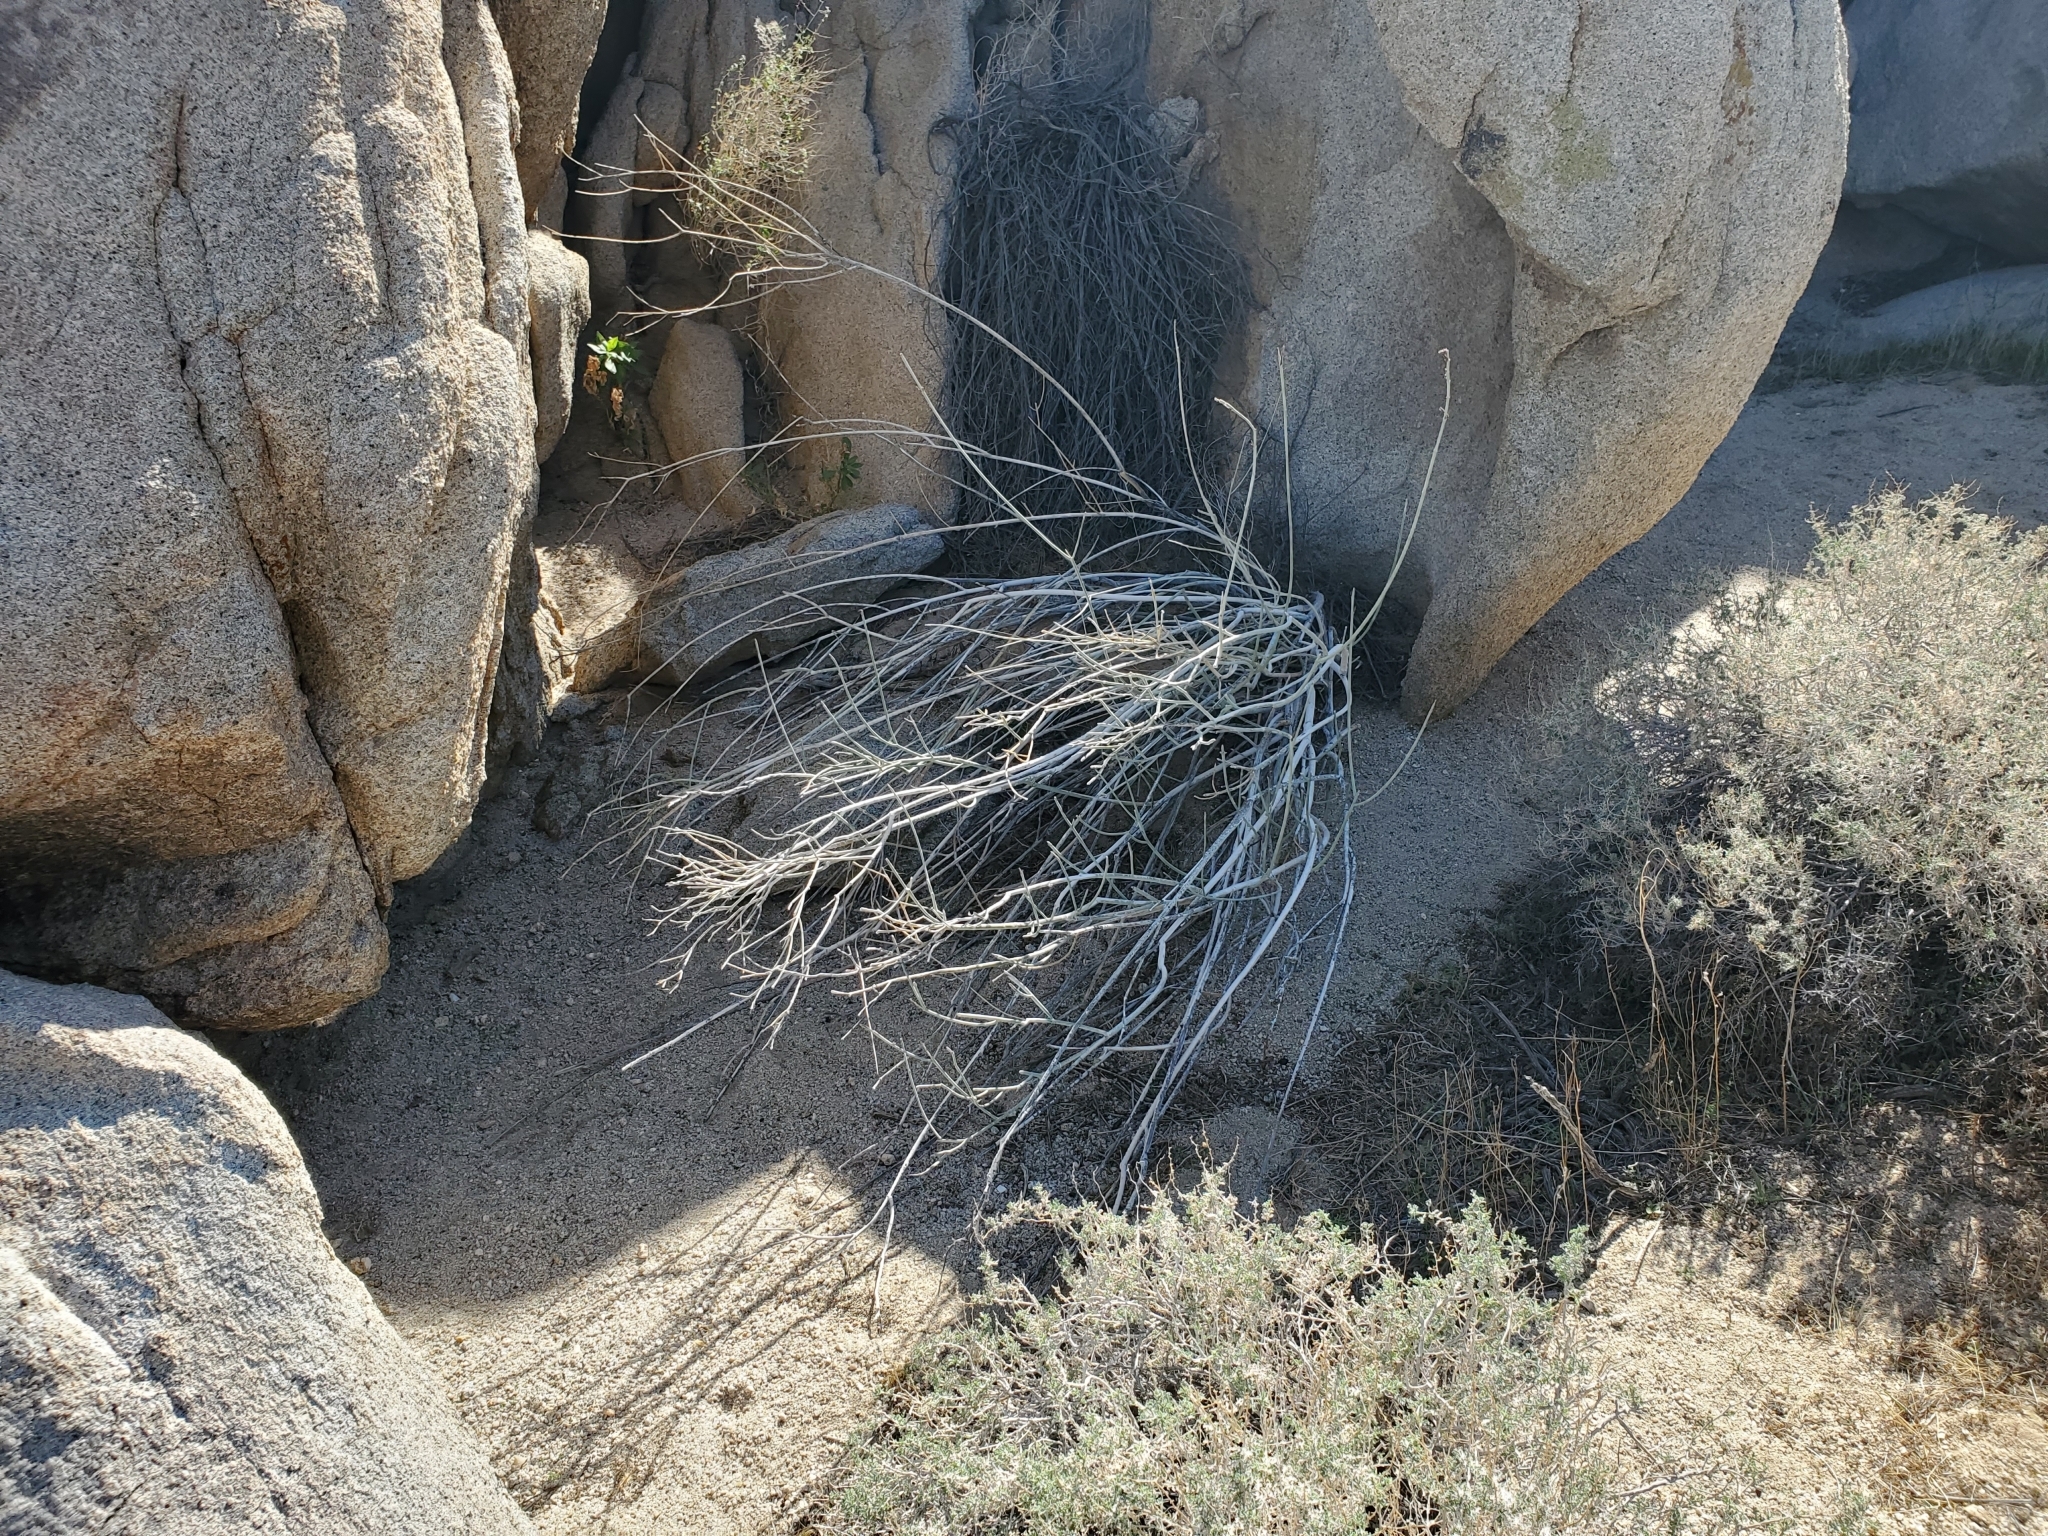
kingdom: Plantae
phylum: Tracheophyta
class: Magnoliopsida
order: Gentianales
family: Apocynaceae
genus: Asclepias
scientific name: Asclepias albicans
